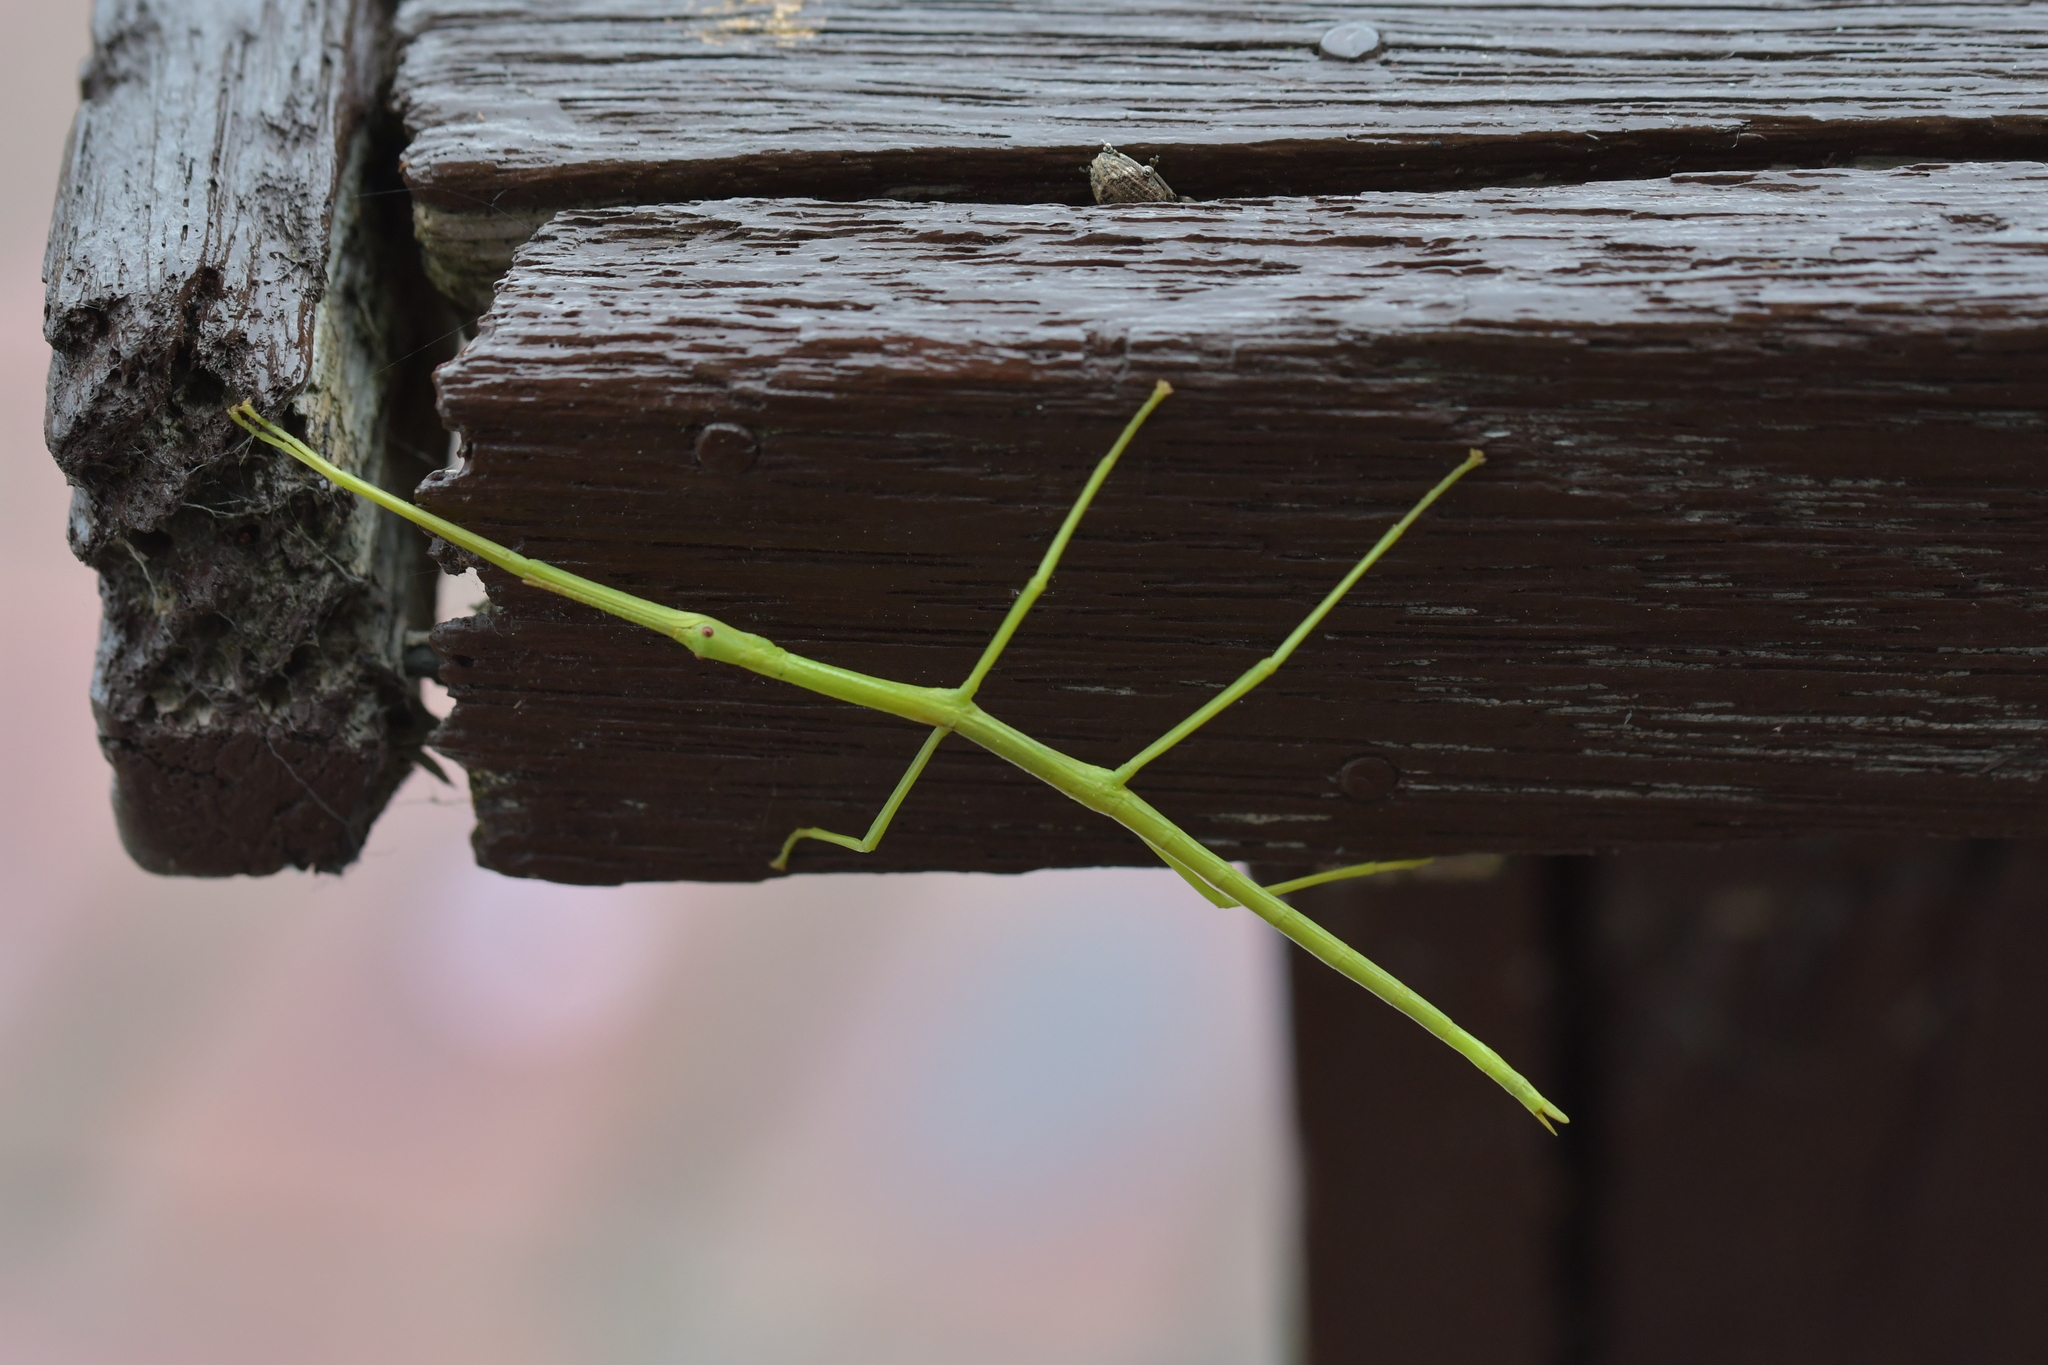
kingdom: Animalia
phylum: Arthropoda
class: Insecta
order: Phasmida
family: Phasmatidae
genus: Clitarchus
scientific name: Clitarchus hookeri
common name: Smooth stick insect
